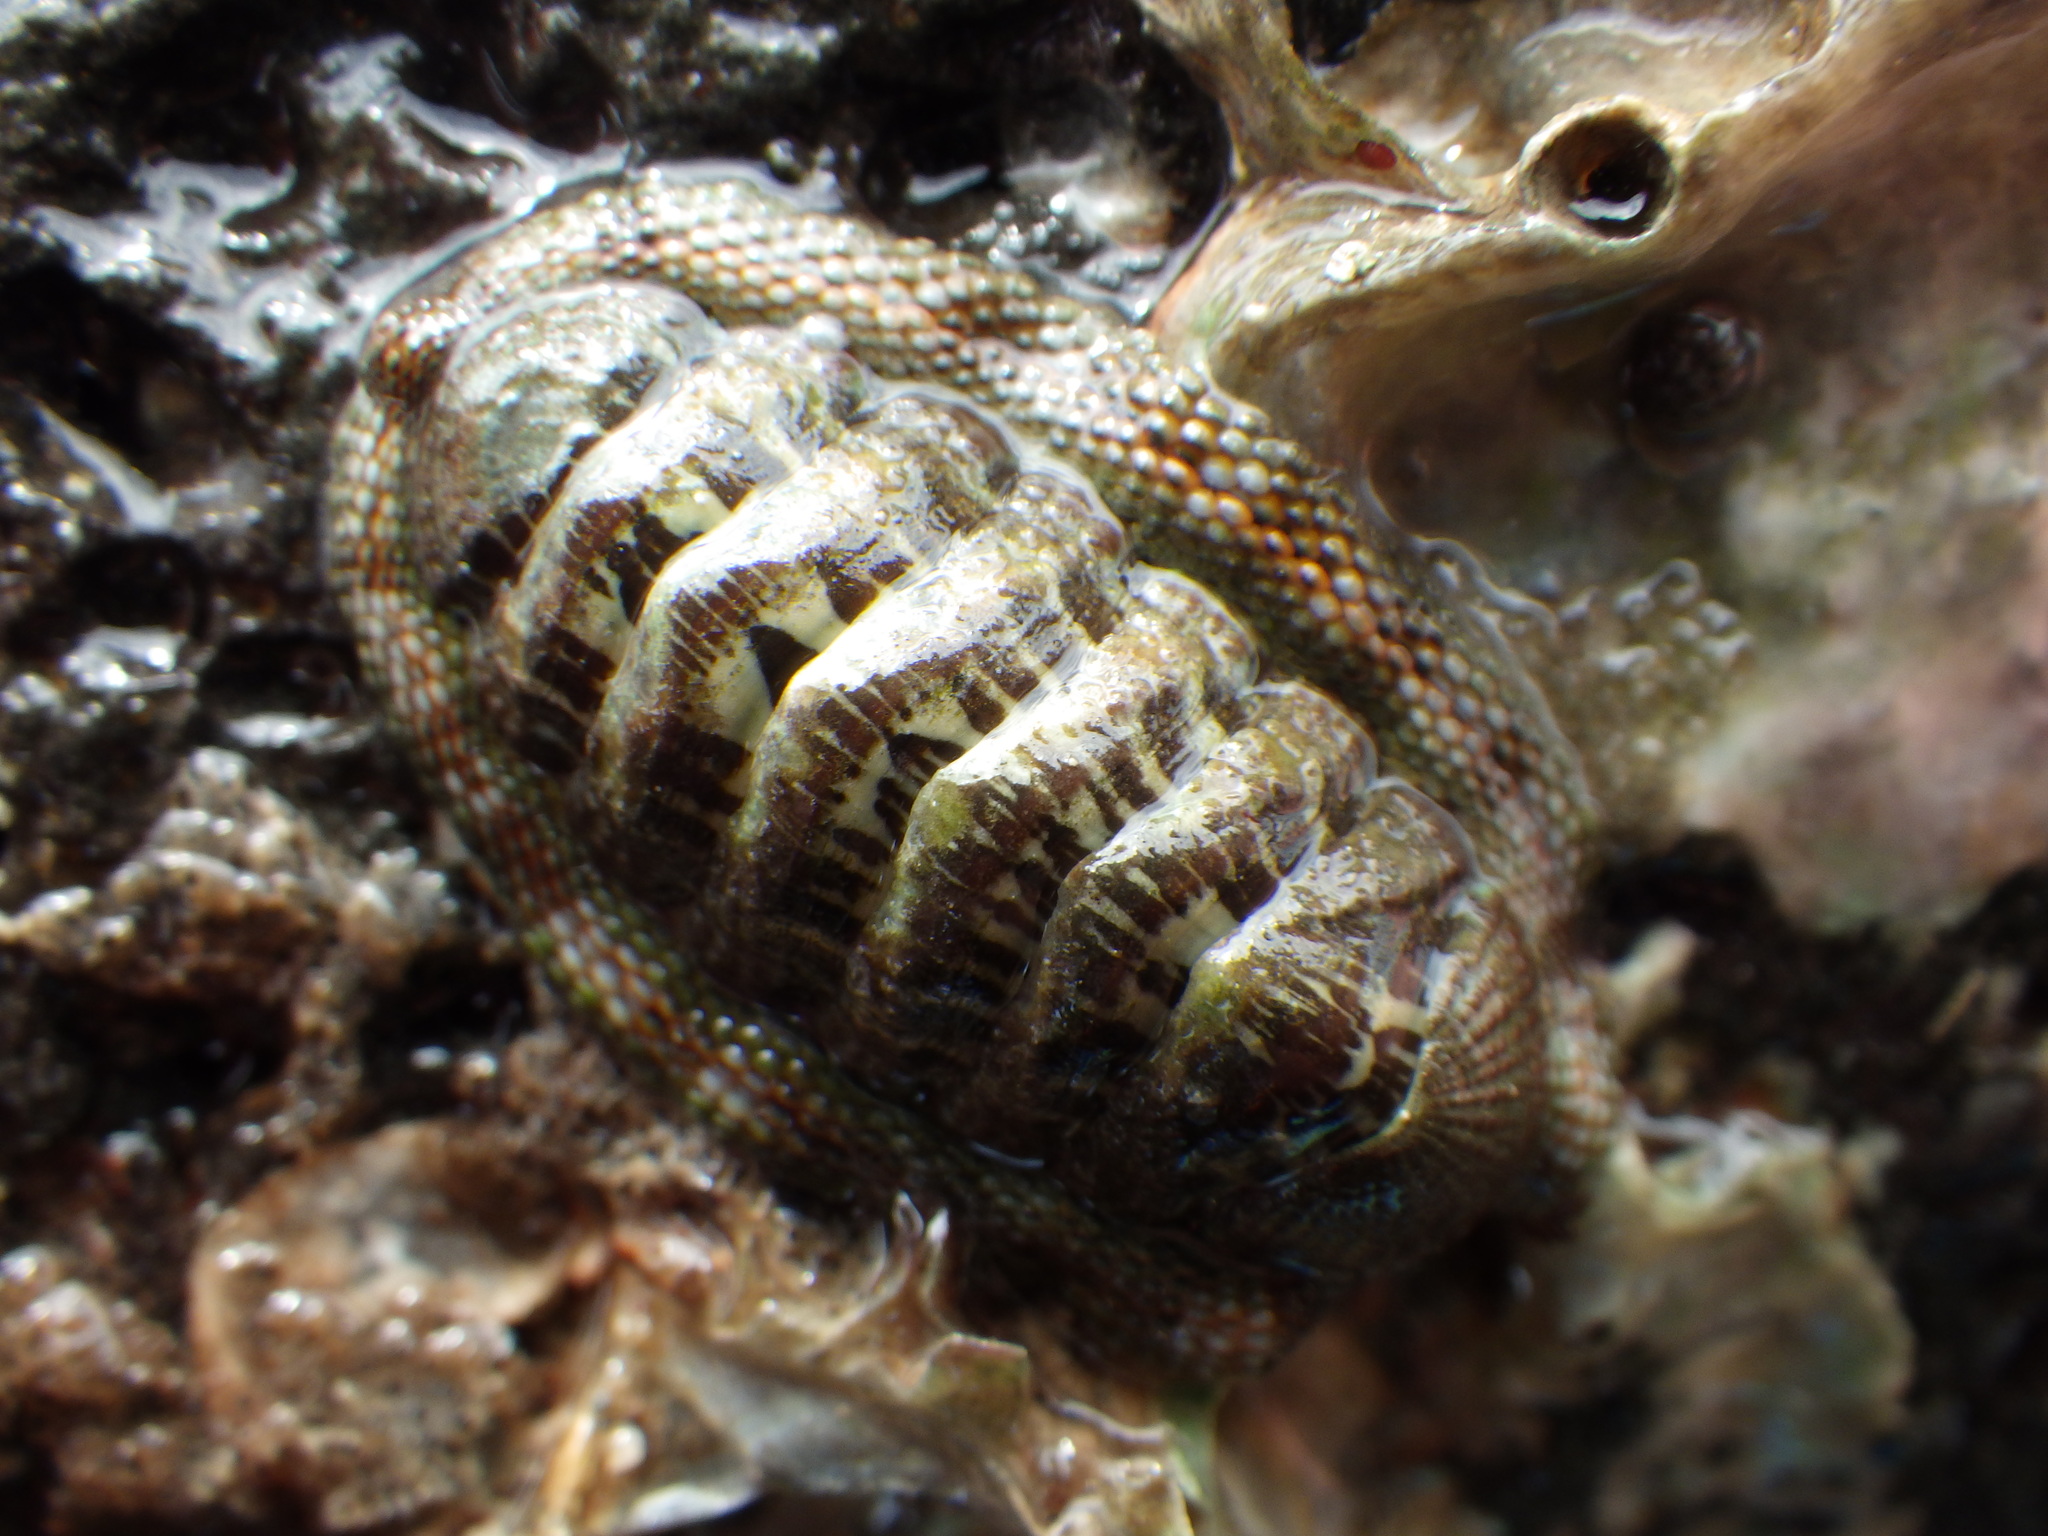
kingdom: Animalia
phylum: Mollusca
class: Polyplacophora
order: Chitonida
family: Chitonidae
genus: Sypharochiton
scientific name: Sypharochiton pelliserpentis
